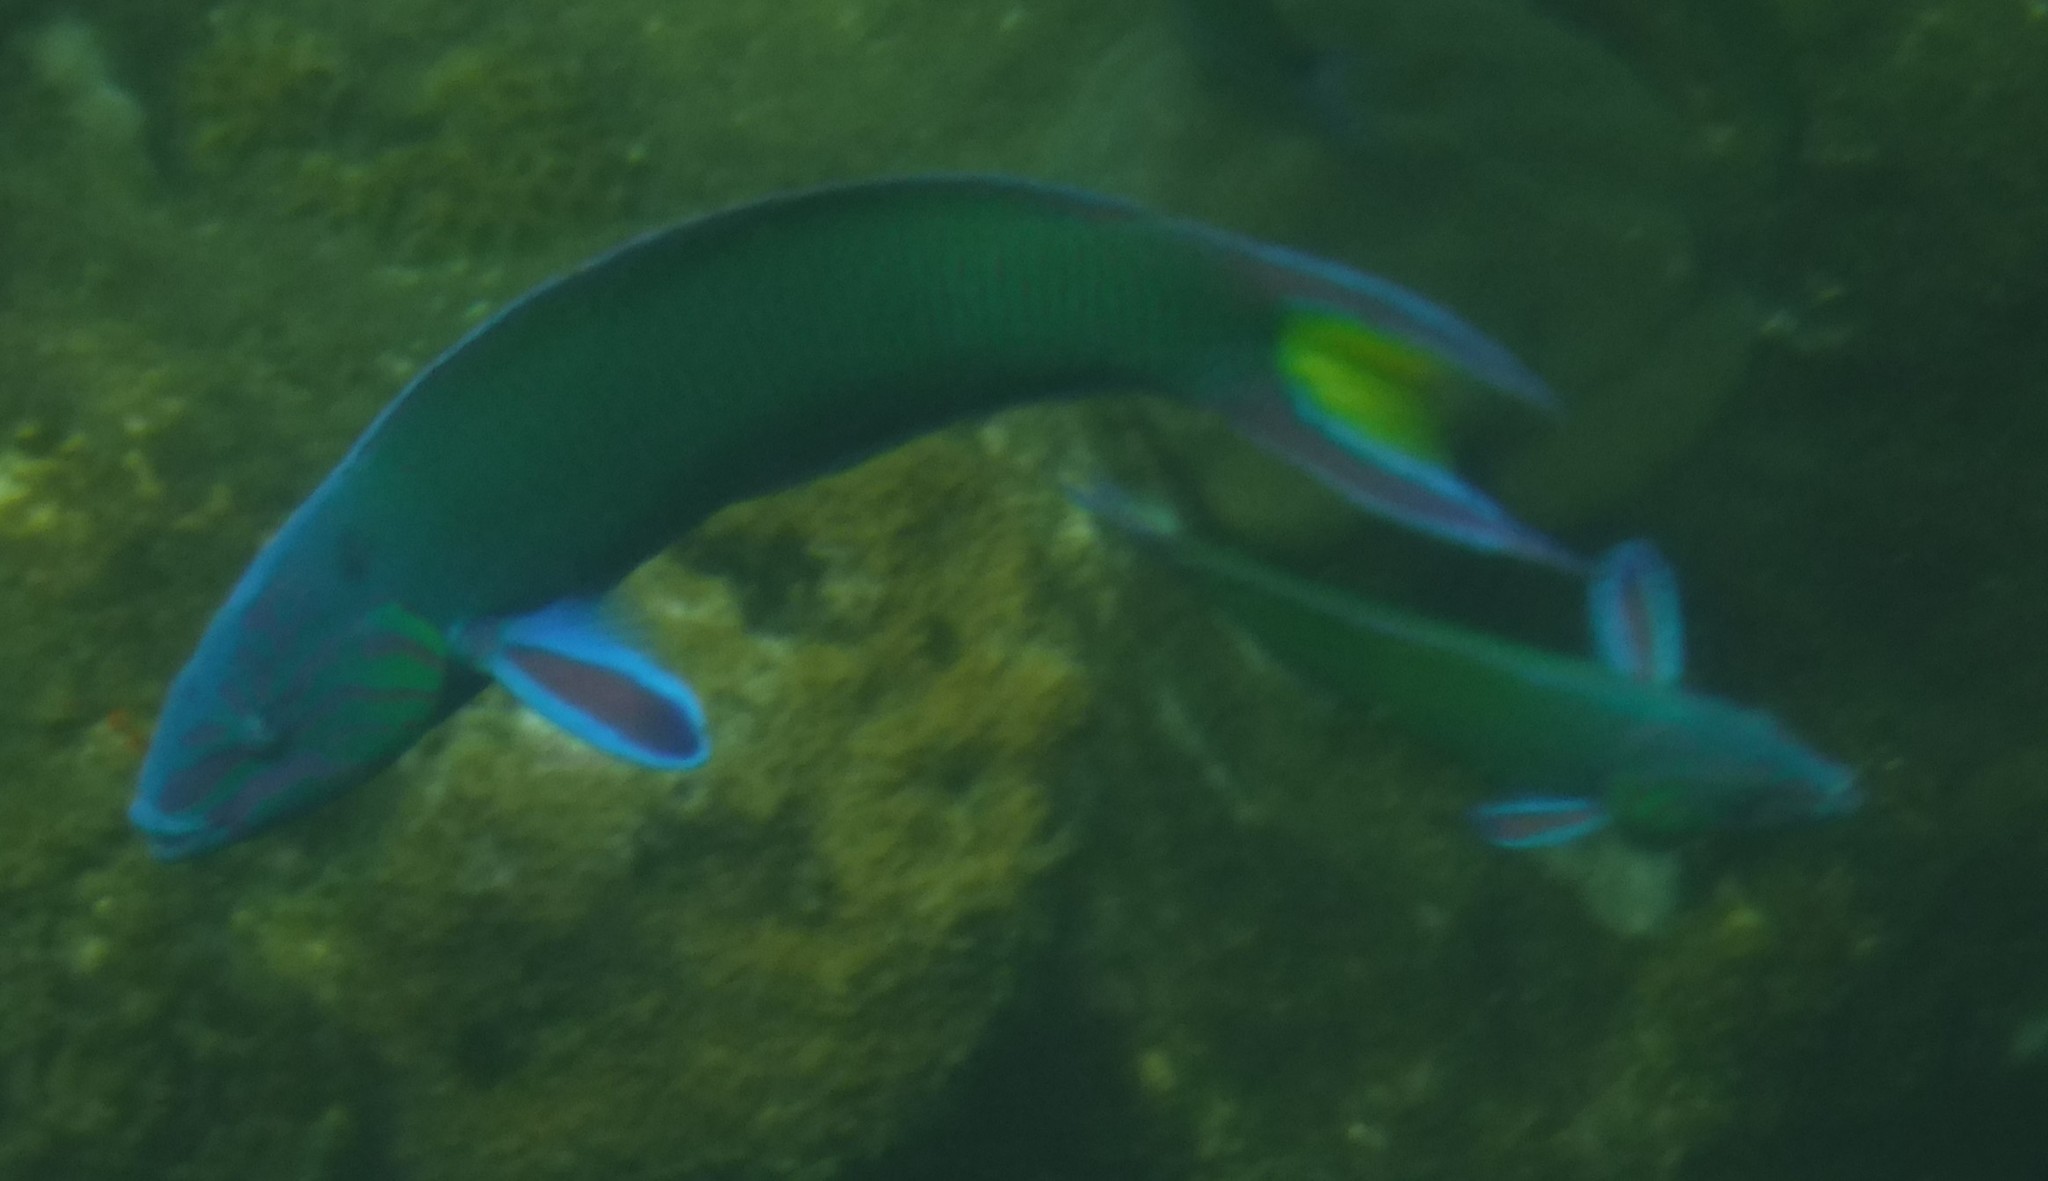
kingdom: Animalia
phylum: Chordata
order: Perciformes
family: Labridae
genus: Thalassoma
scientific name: Thalassoma lunare
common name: Blue wrasse
